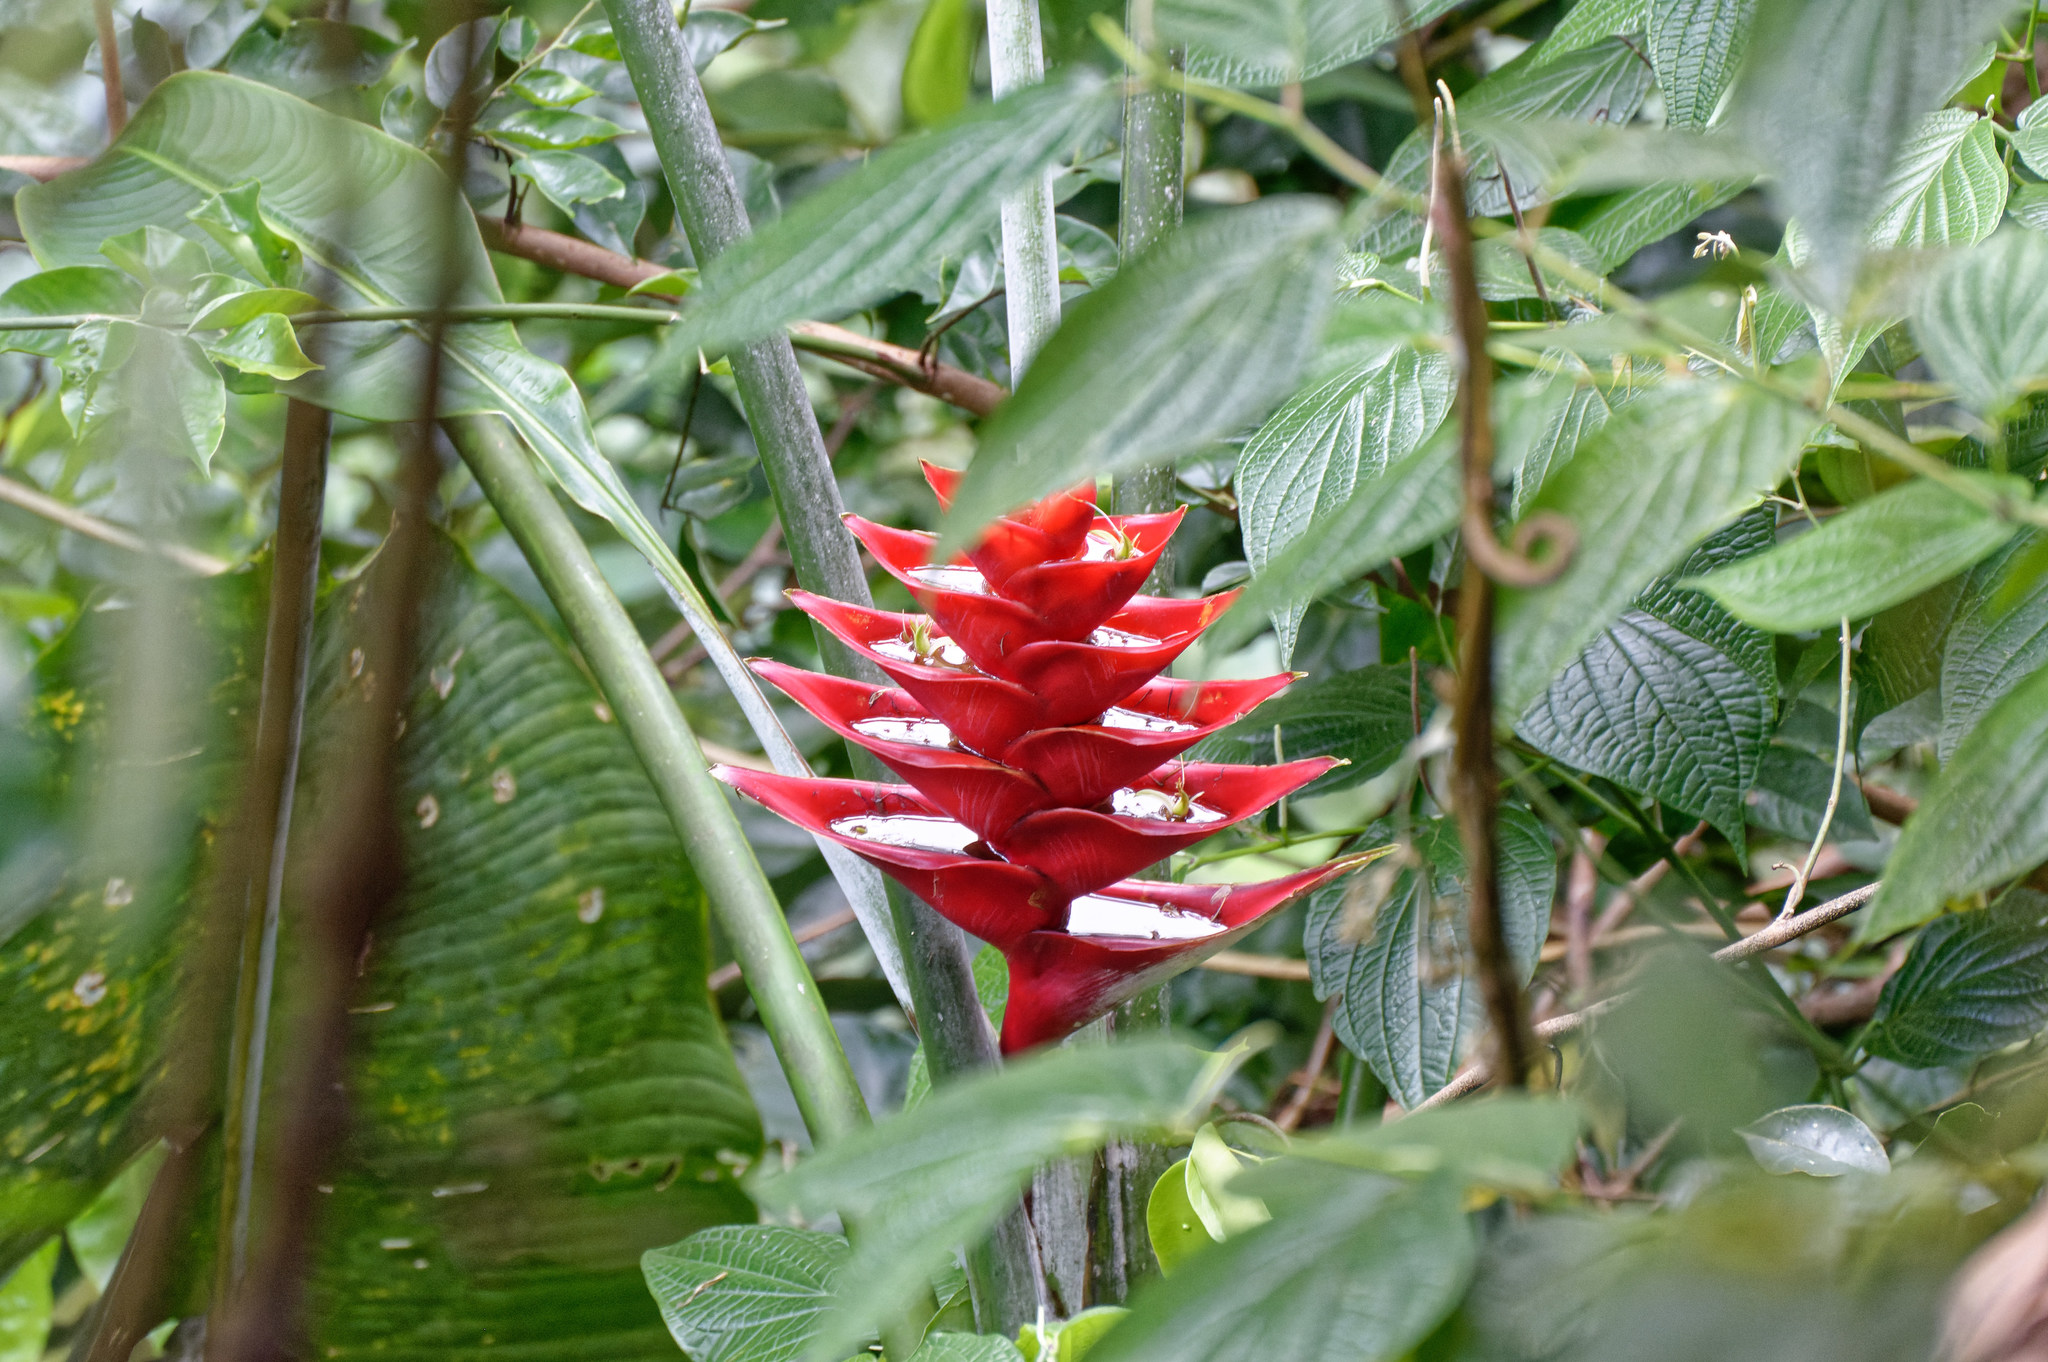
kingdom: Plantae
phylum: Tracheophyta
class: Liliopsida
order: Zingiberales
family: Heliconiaceae
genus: Heliconia
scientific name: Heliconia caribaea
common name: Wild plantain
